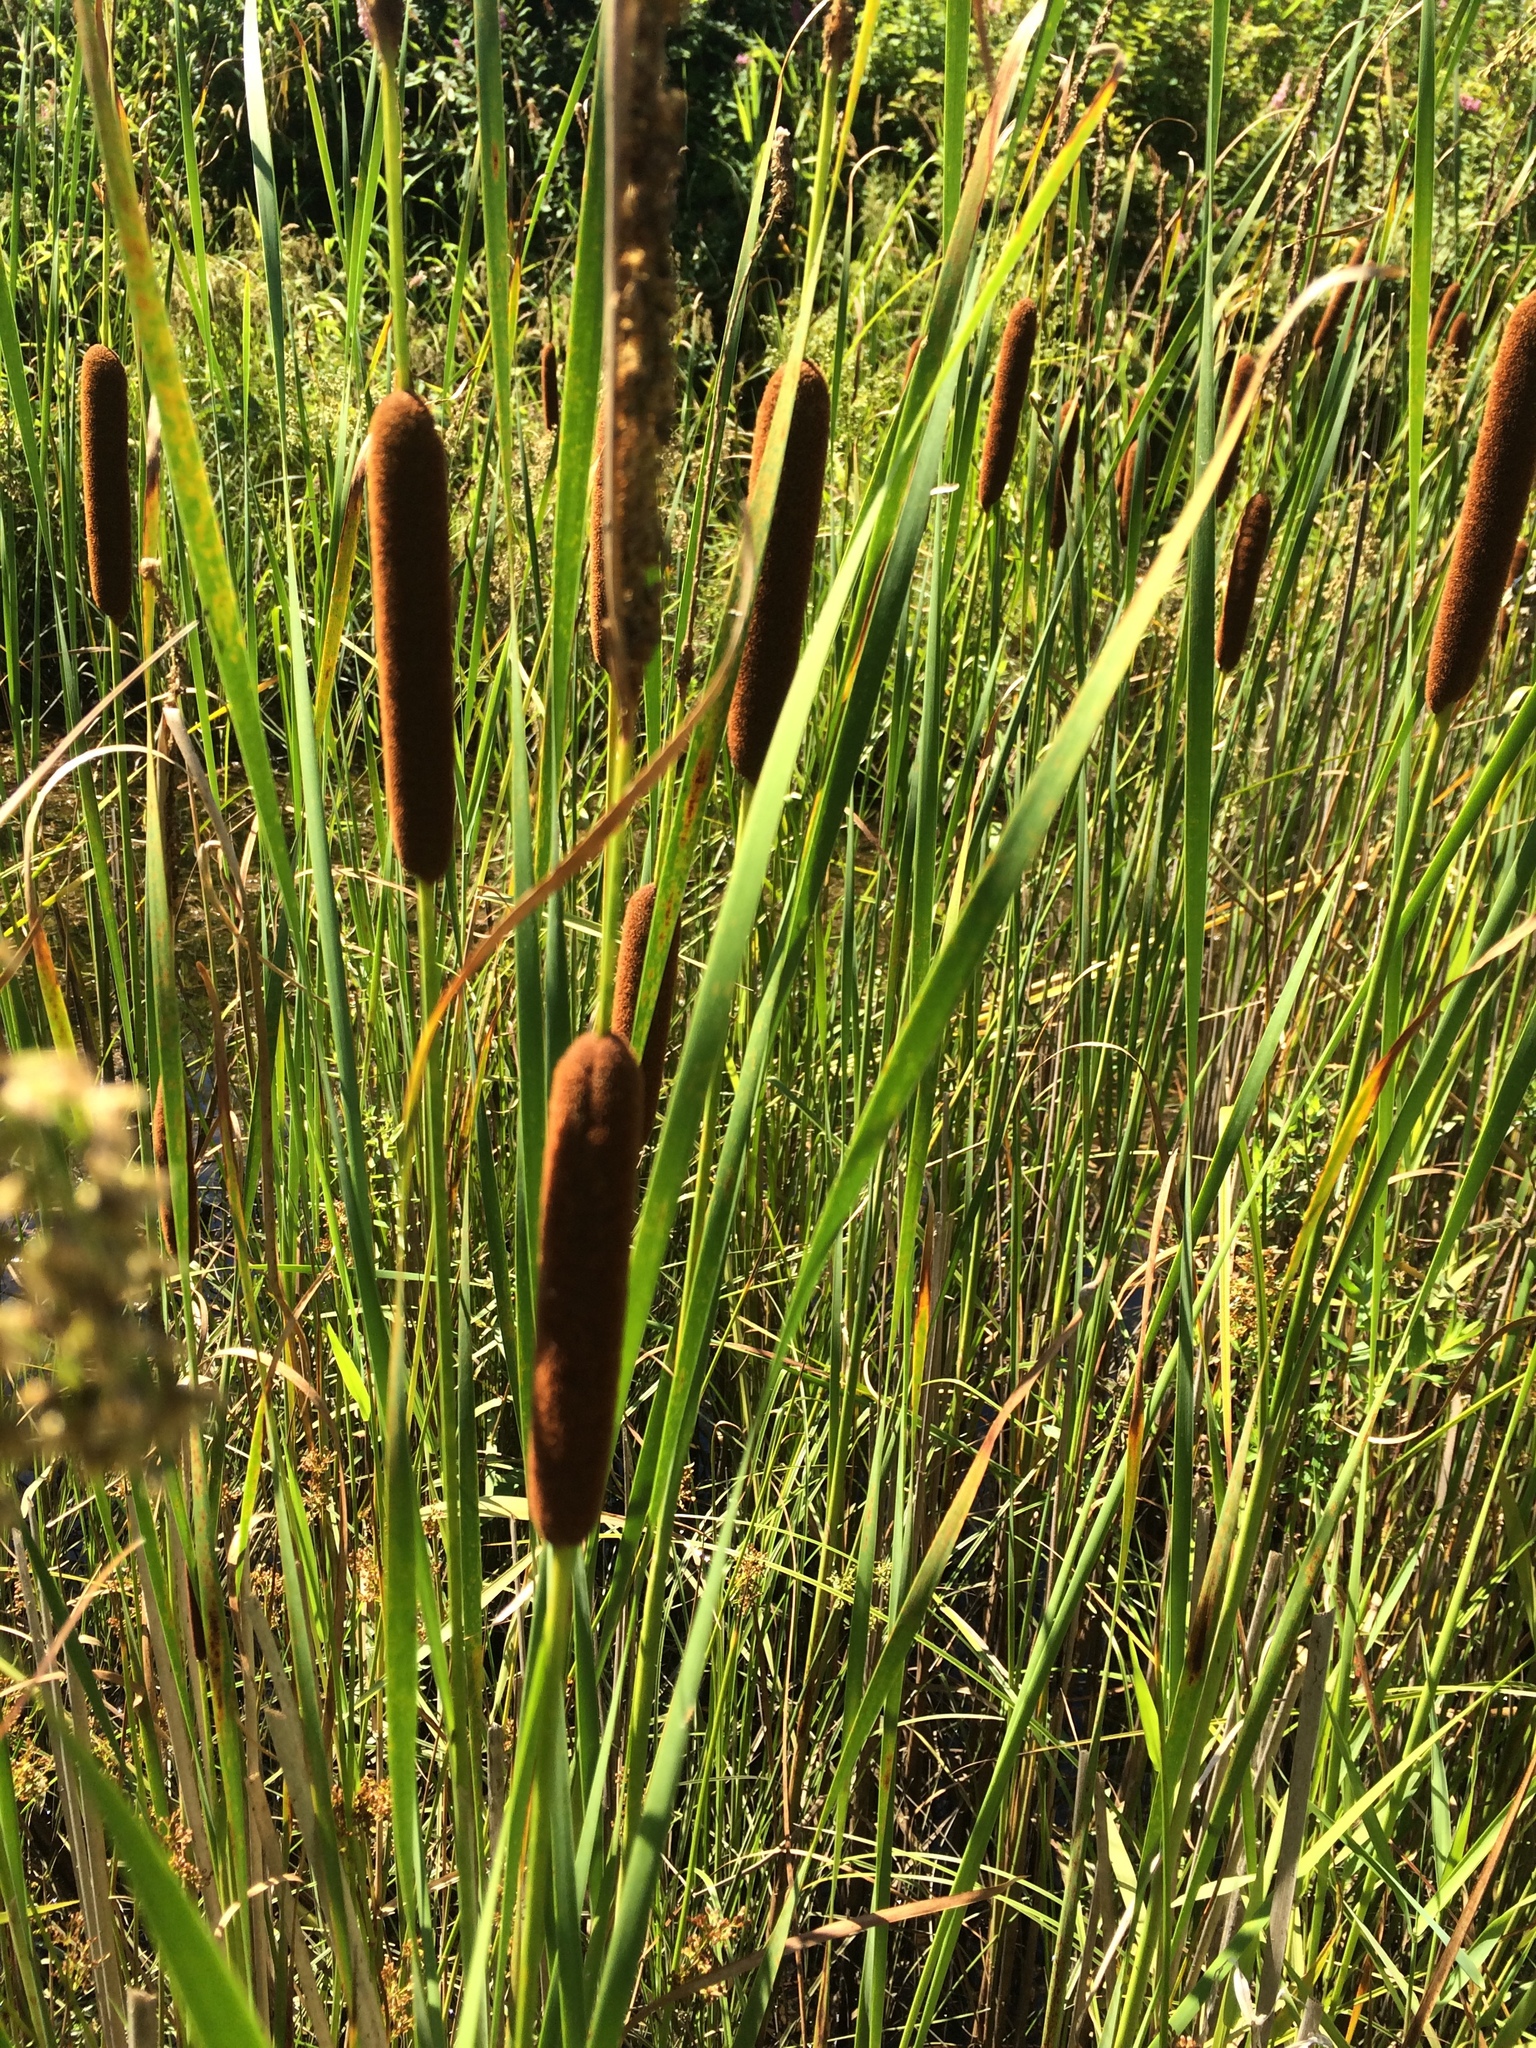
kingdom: Plantae
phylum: Tracheophyta
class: Liliopsida
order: Poales
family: Typhaceae
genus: Typha
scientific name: Typha angustifolia
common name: Lesser bulrush
